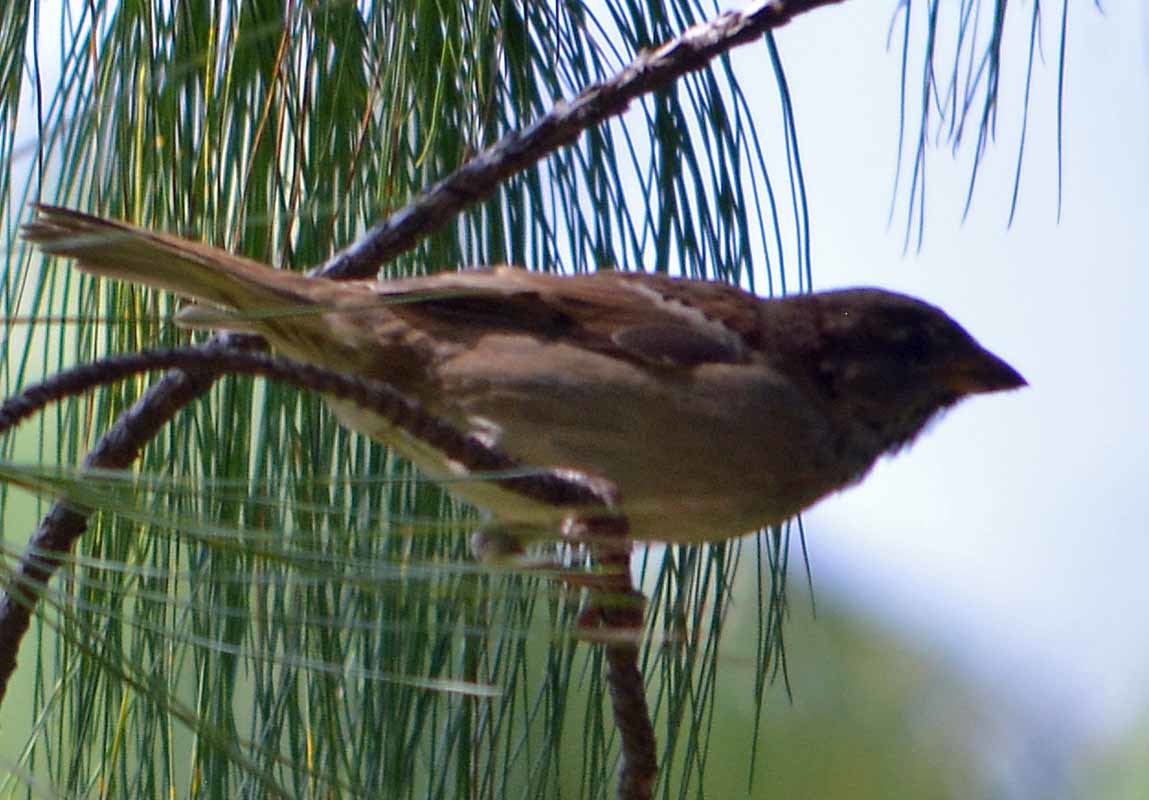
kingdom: Animalia
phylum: Chordata
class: Aves
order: Passeriformes
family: Passeridae
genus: Passer
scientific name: Passer domesticus
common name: House sparrow
